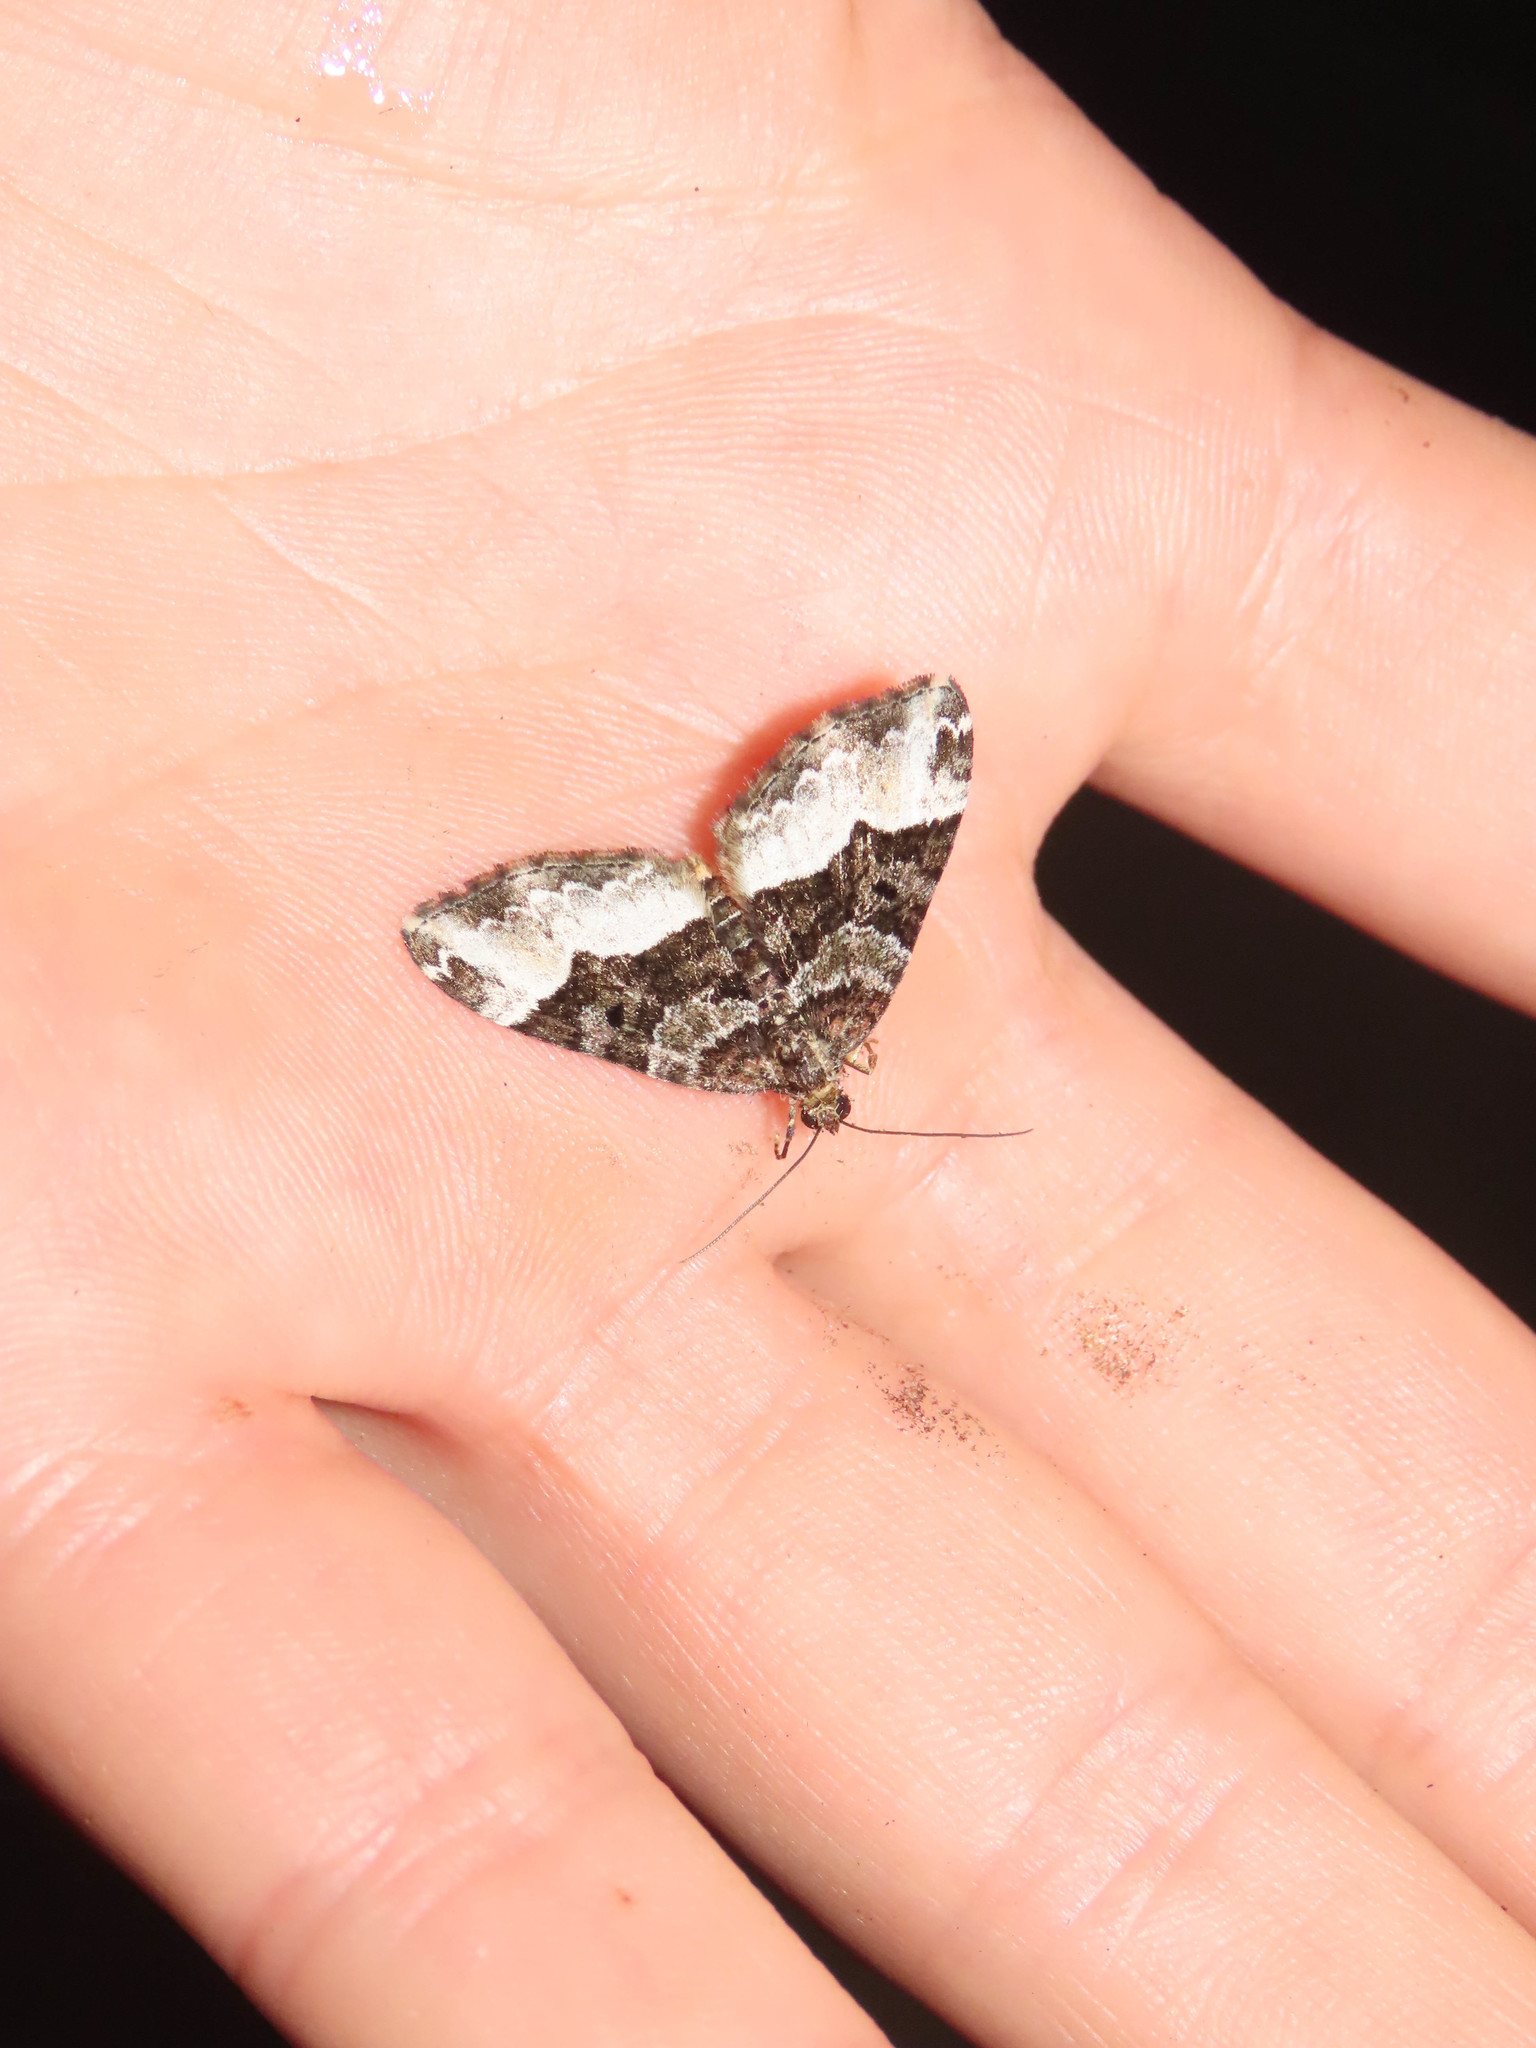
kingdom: Animalia
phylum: Arthropoda
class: Insecta
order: Lepidoptera
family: Geometridae
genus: Euphyia
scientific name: Euphyia intermediata
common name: Sharp-angled carpet
